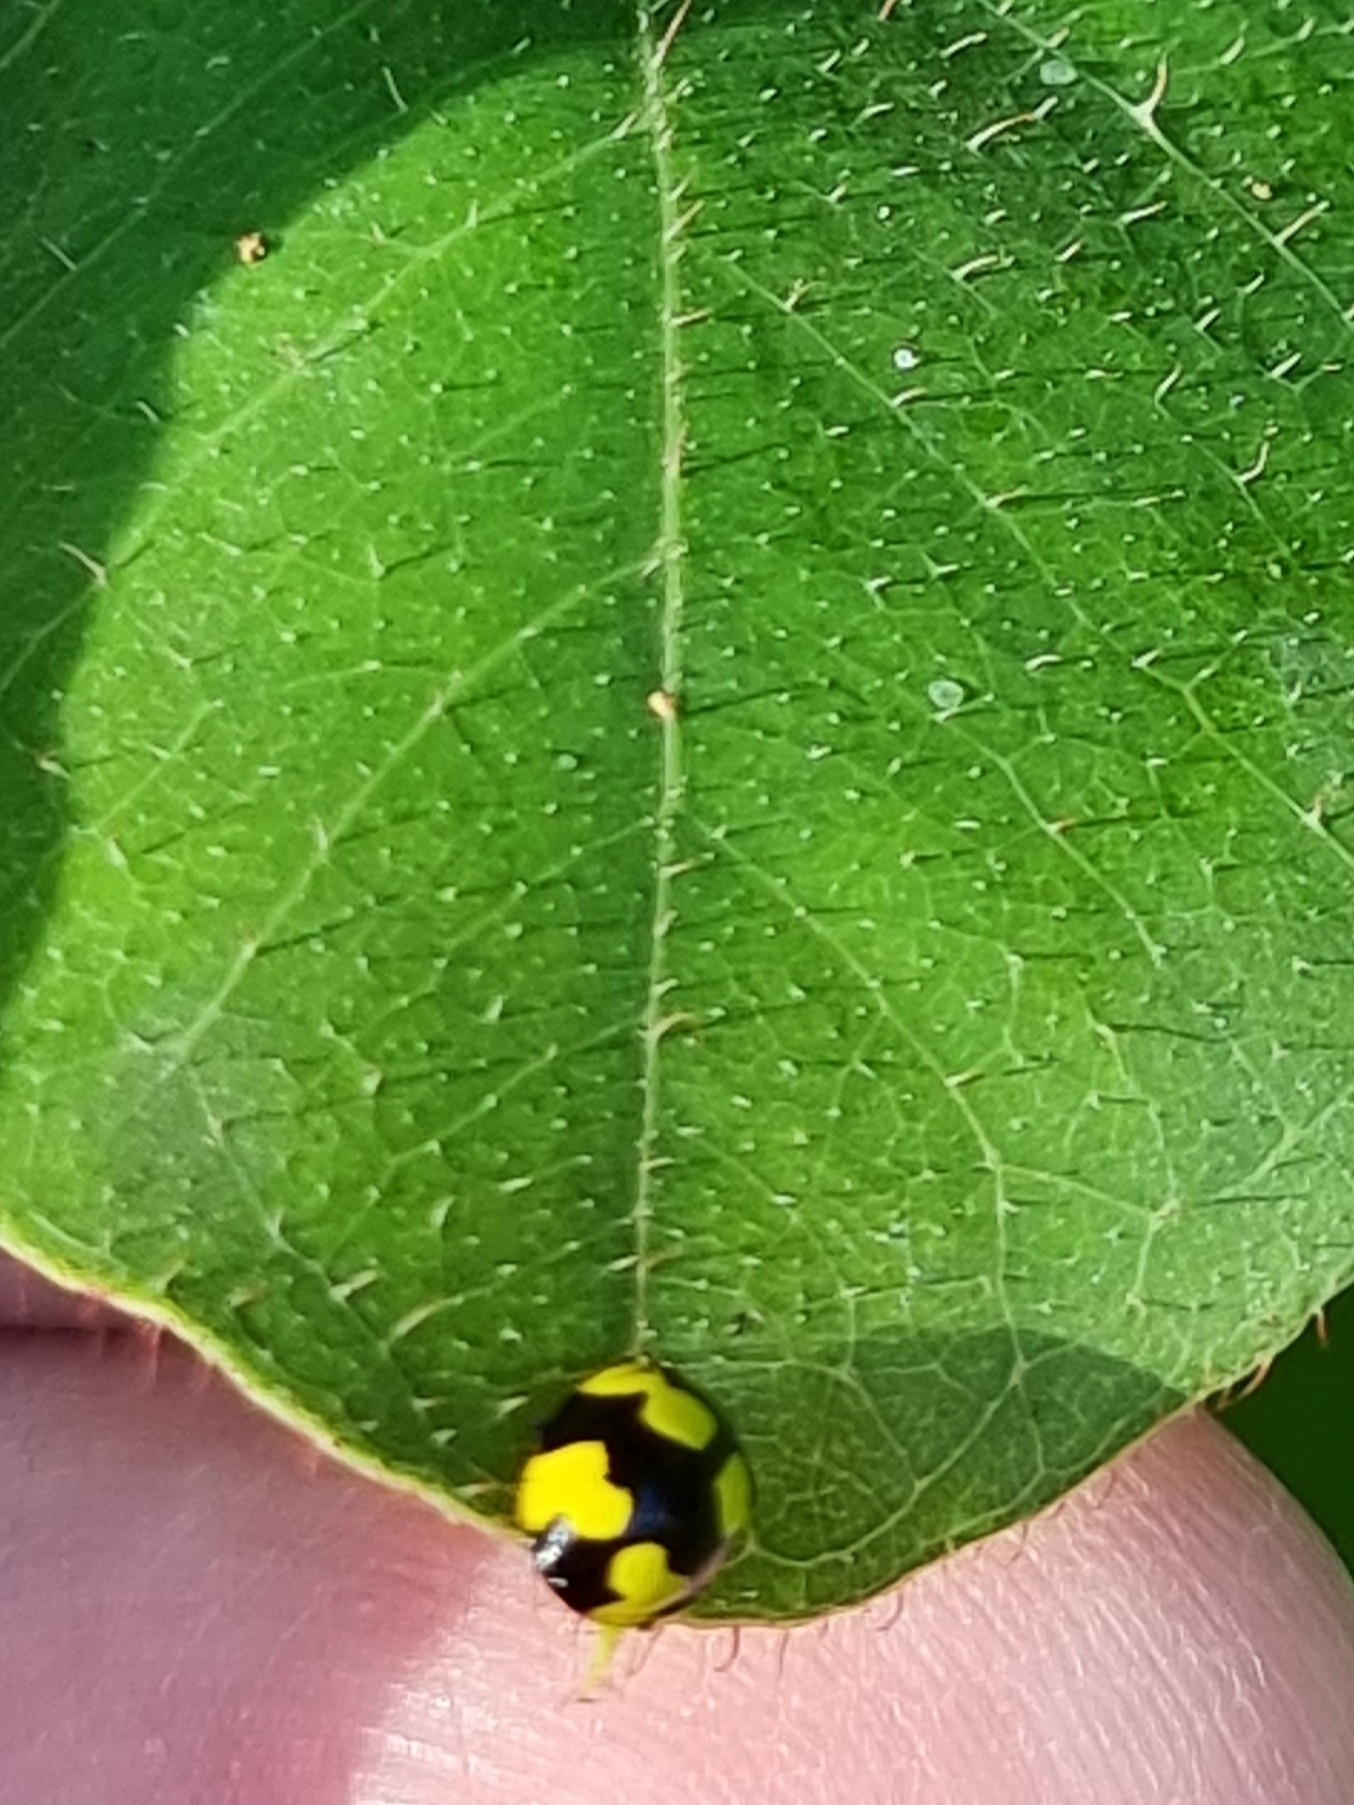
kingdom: Animalia
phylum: Arthropoda
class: Insecta
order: Coleoptera
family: Coccinellidae
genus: Illeis
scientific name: Illeis galbula
